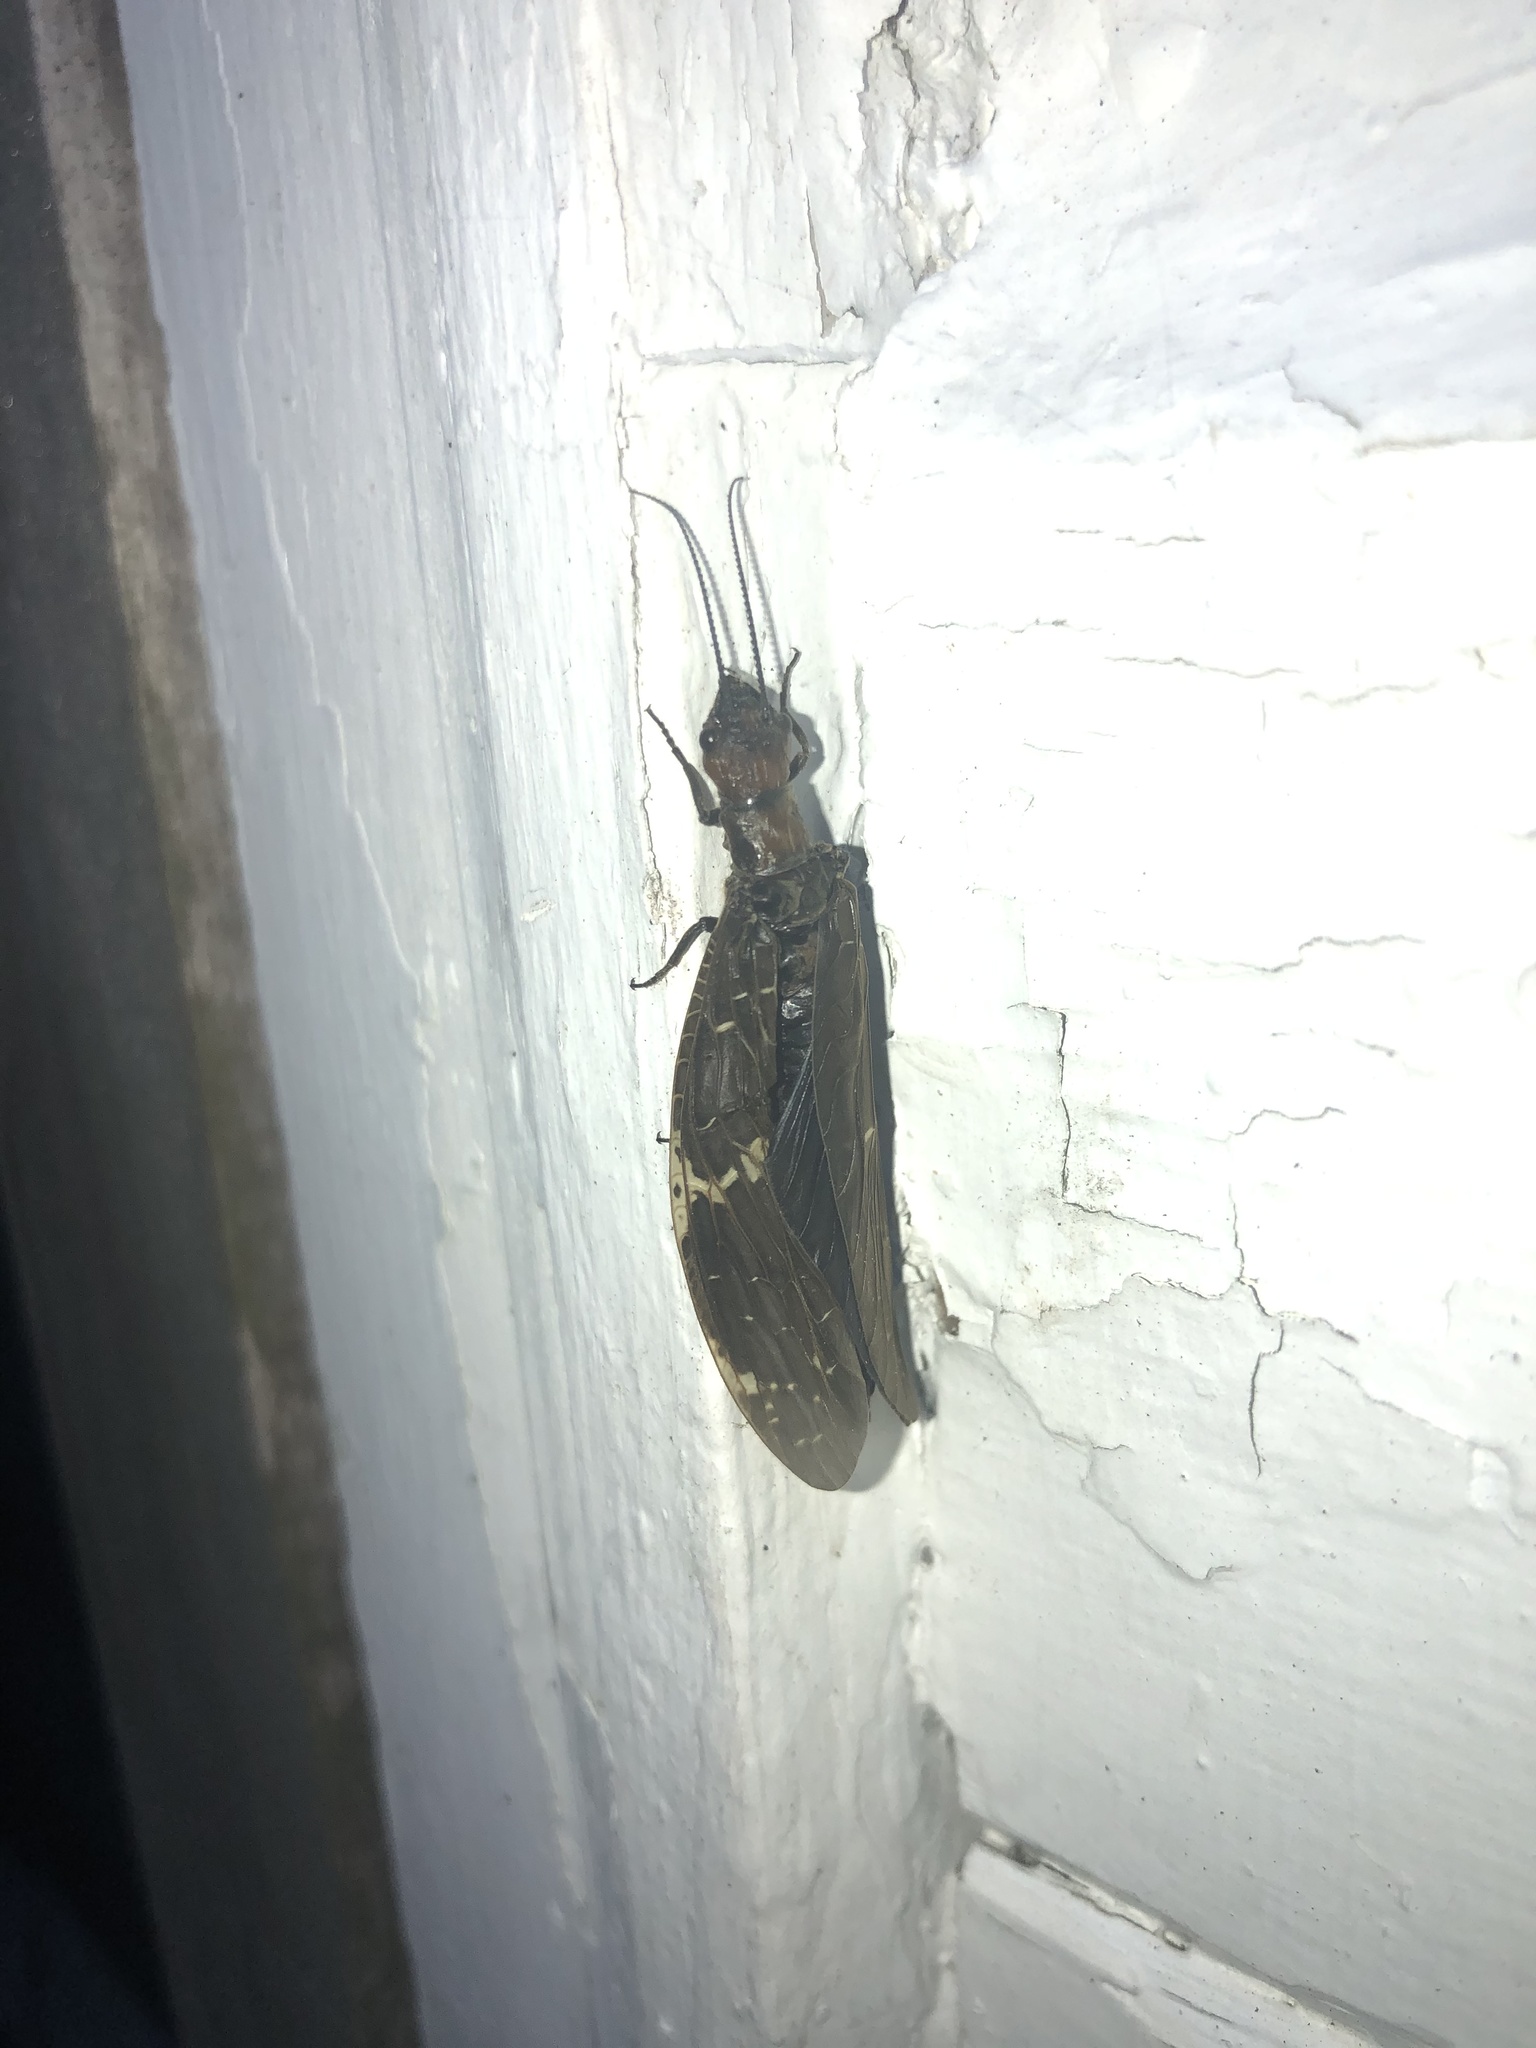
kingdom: Animalia
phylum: Arthropoda
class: Insecta
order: Megaloptera
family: Corydalidae
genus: Nigronia
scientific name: Nigronia serricornis
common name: Serrate dark fishfly
